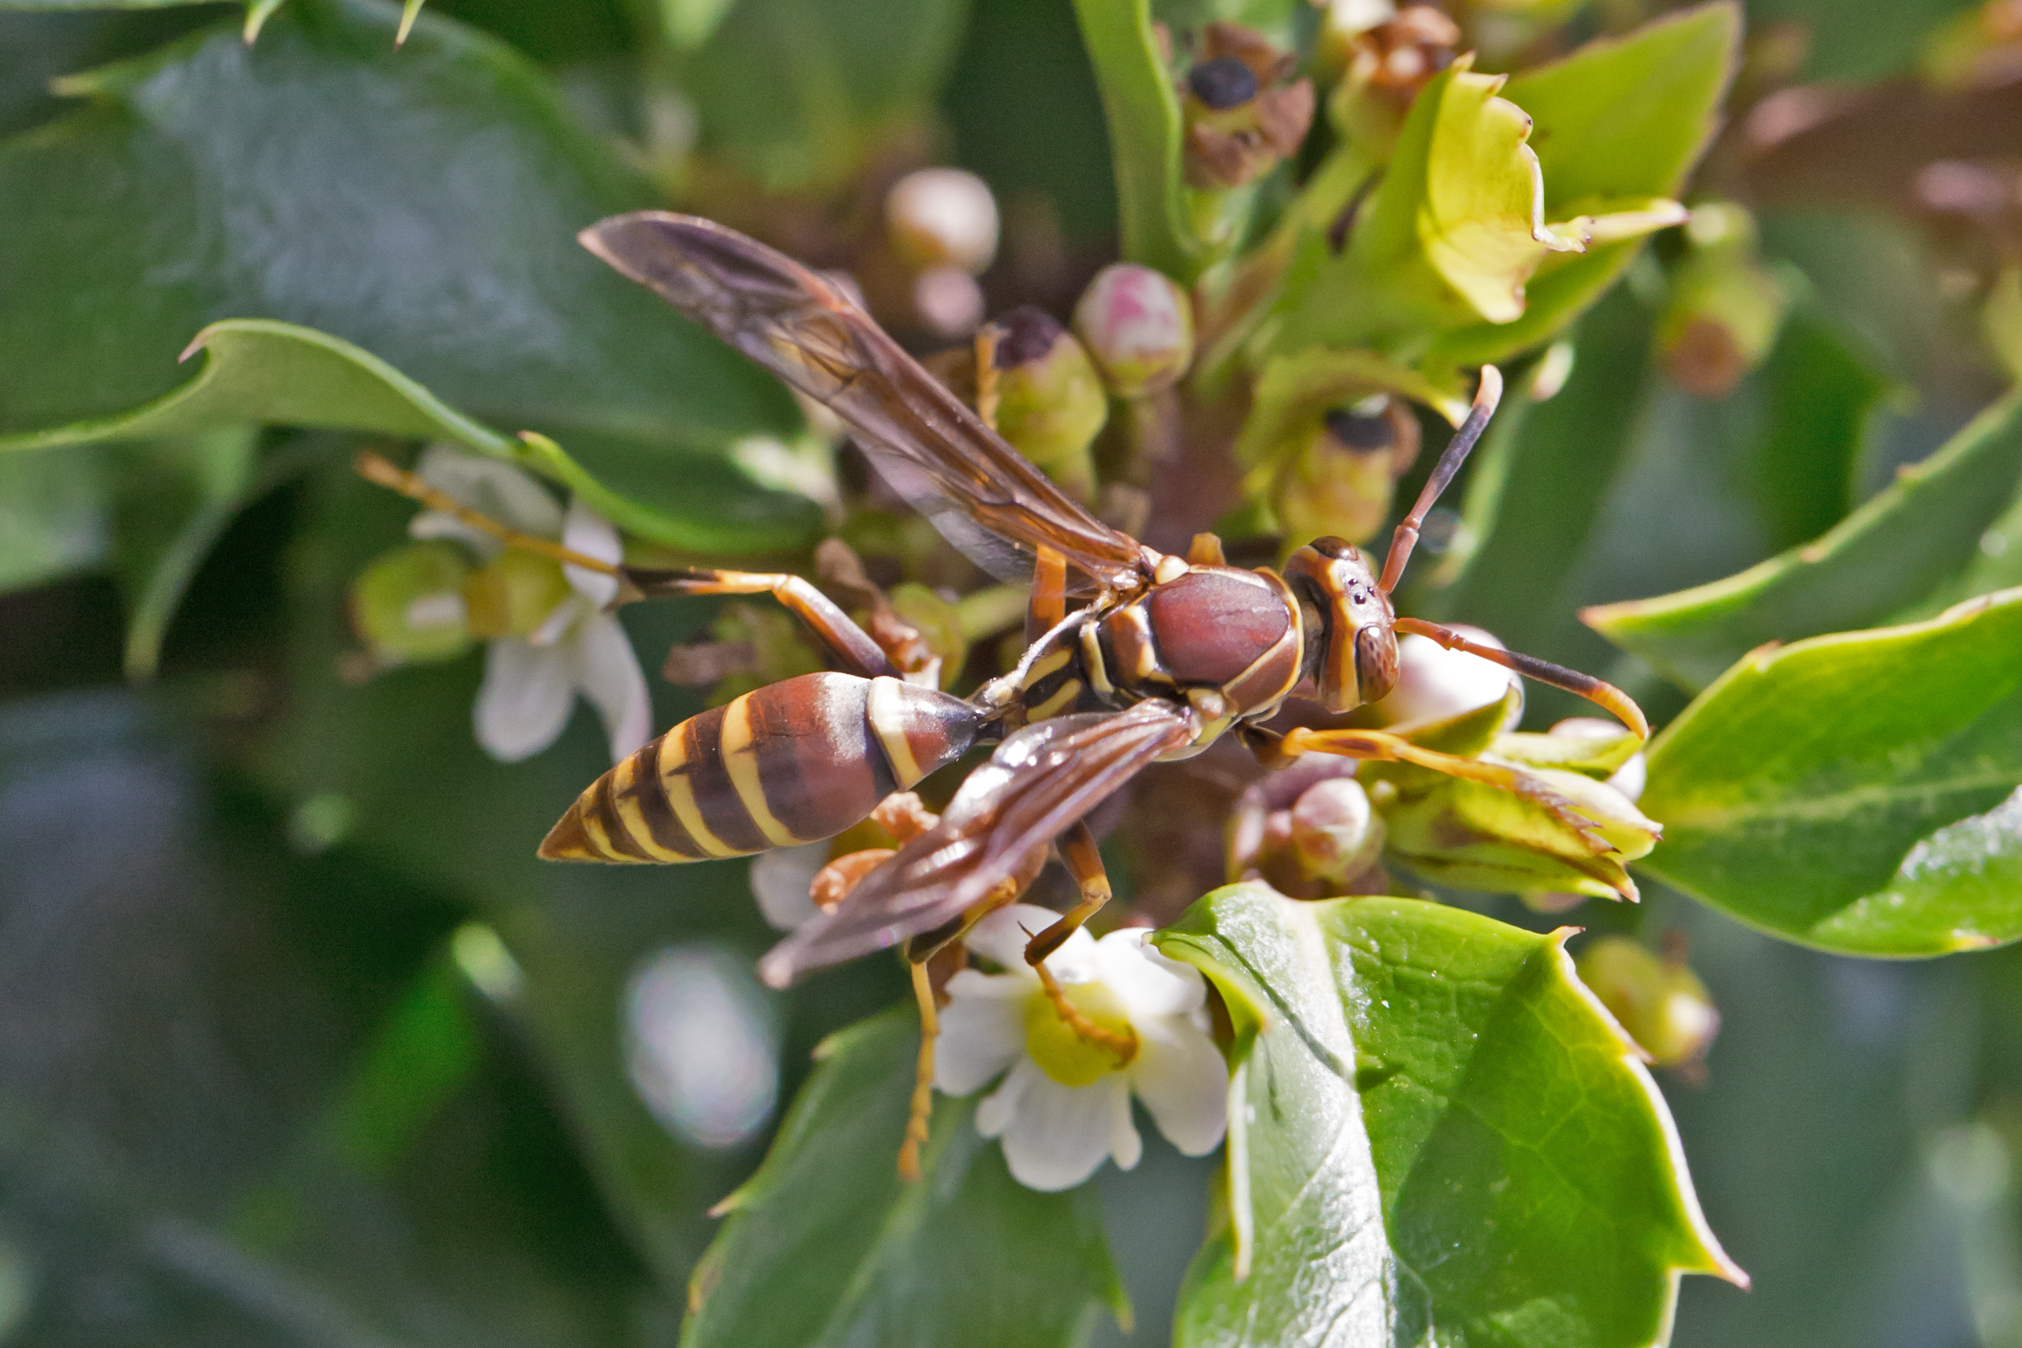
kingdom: Animalia
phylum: Arthropoda
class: Insecta
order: Hymenoptera
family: Eumenidae
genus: Polistes
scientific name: Polistes exclamans
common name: Paper wasp
